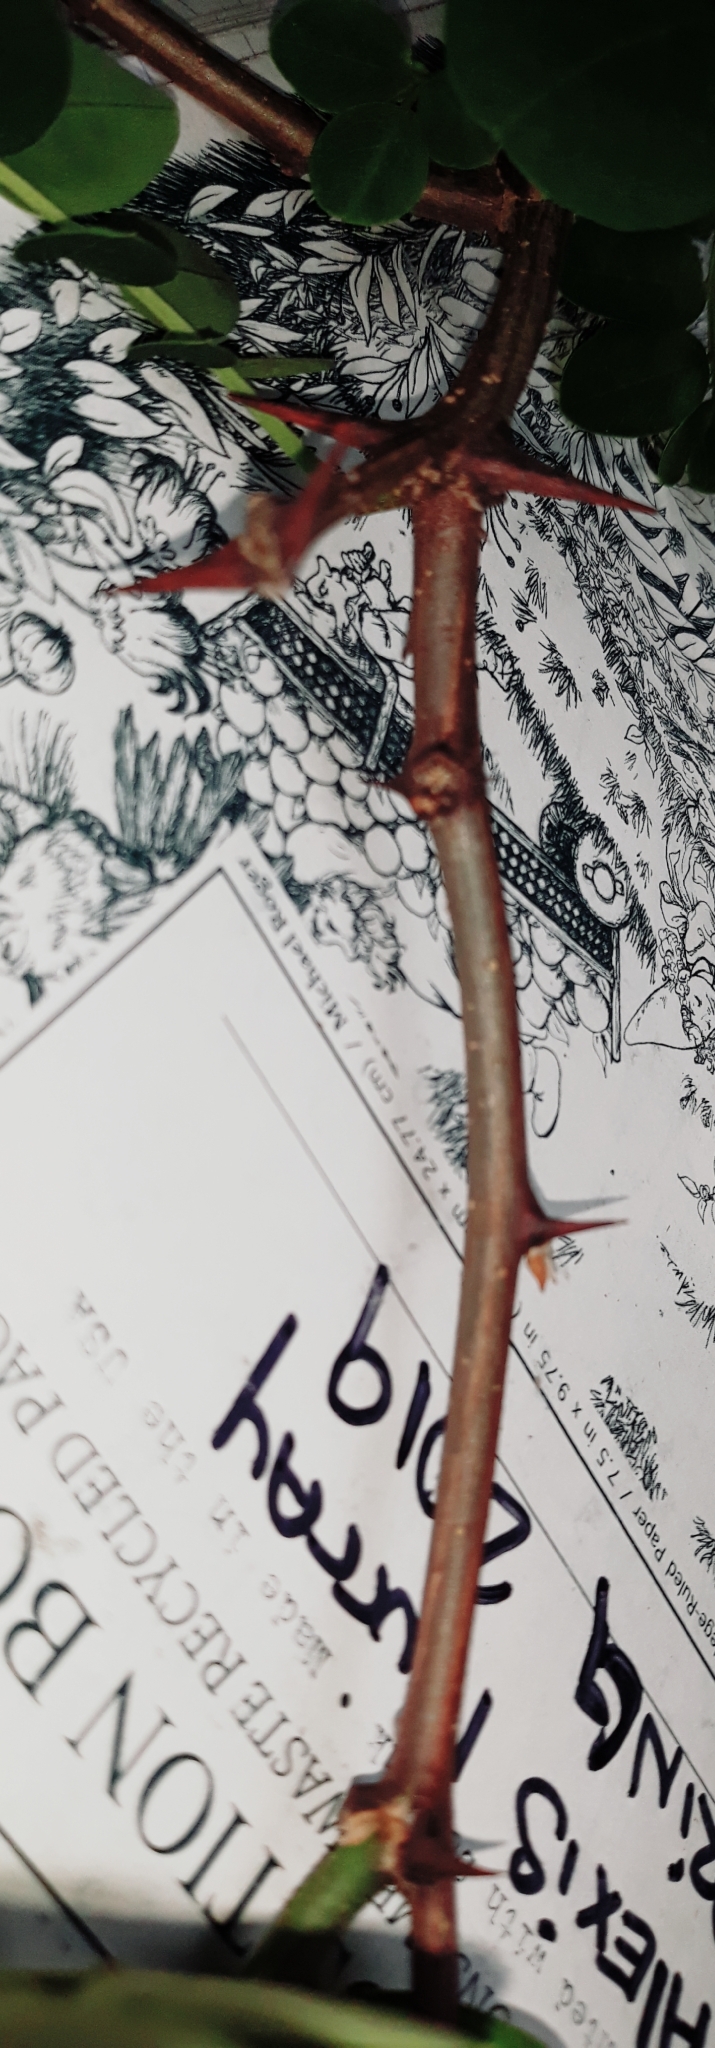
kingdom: Plantae
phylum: Tracheophyta
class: Magnoliopsida
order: Fabales
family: Fabaceae
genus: Robinia
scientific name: Robinia pseudoacacia
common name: Black locust
